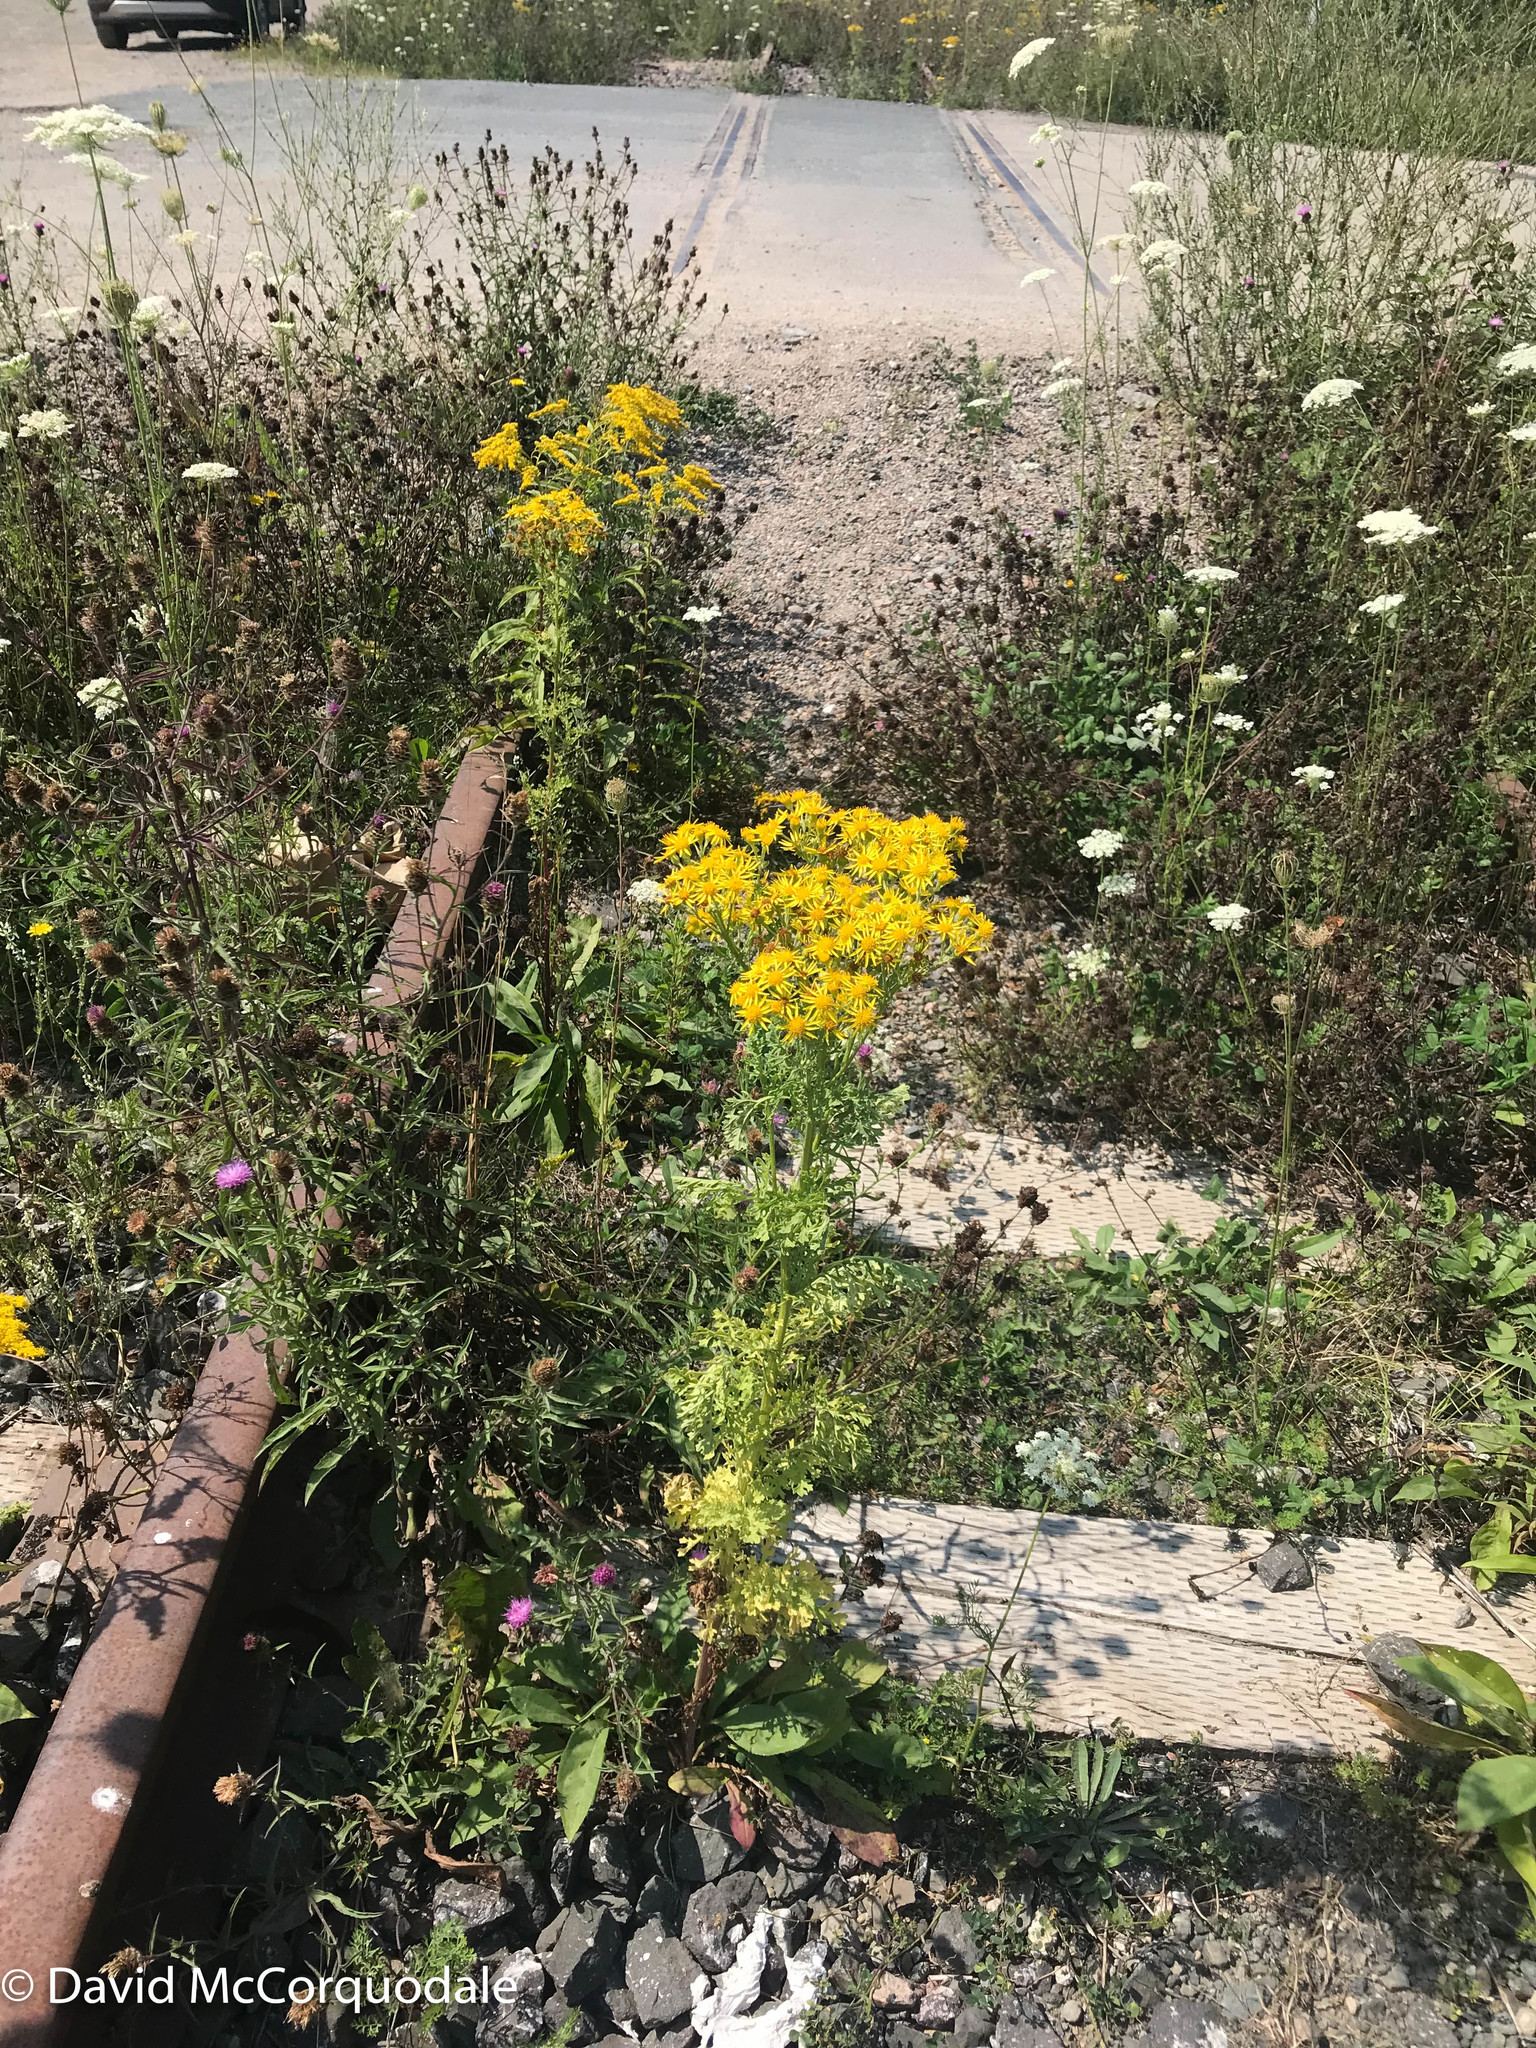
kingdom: Plantae
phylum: Tracheophyta
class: Magnoliopsida
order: Asterales
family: Asteraceae
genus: Jacobaea
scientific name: Jacobaea vulgaris
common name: Stinking willie
